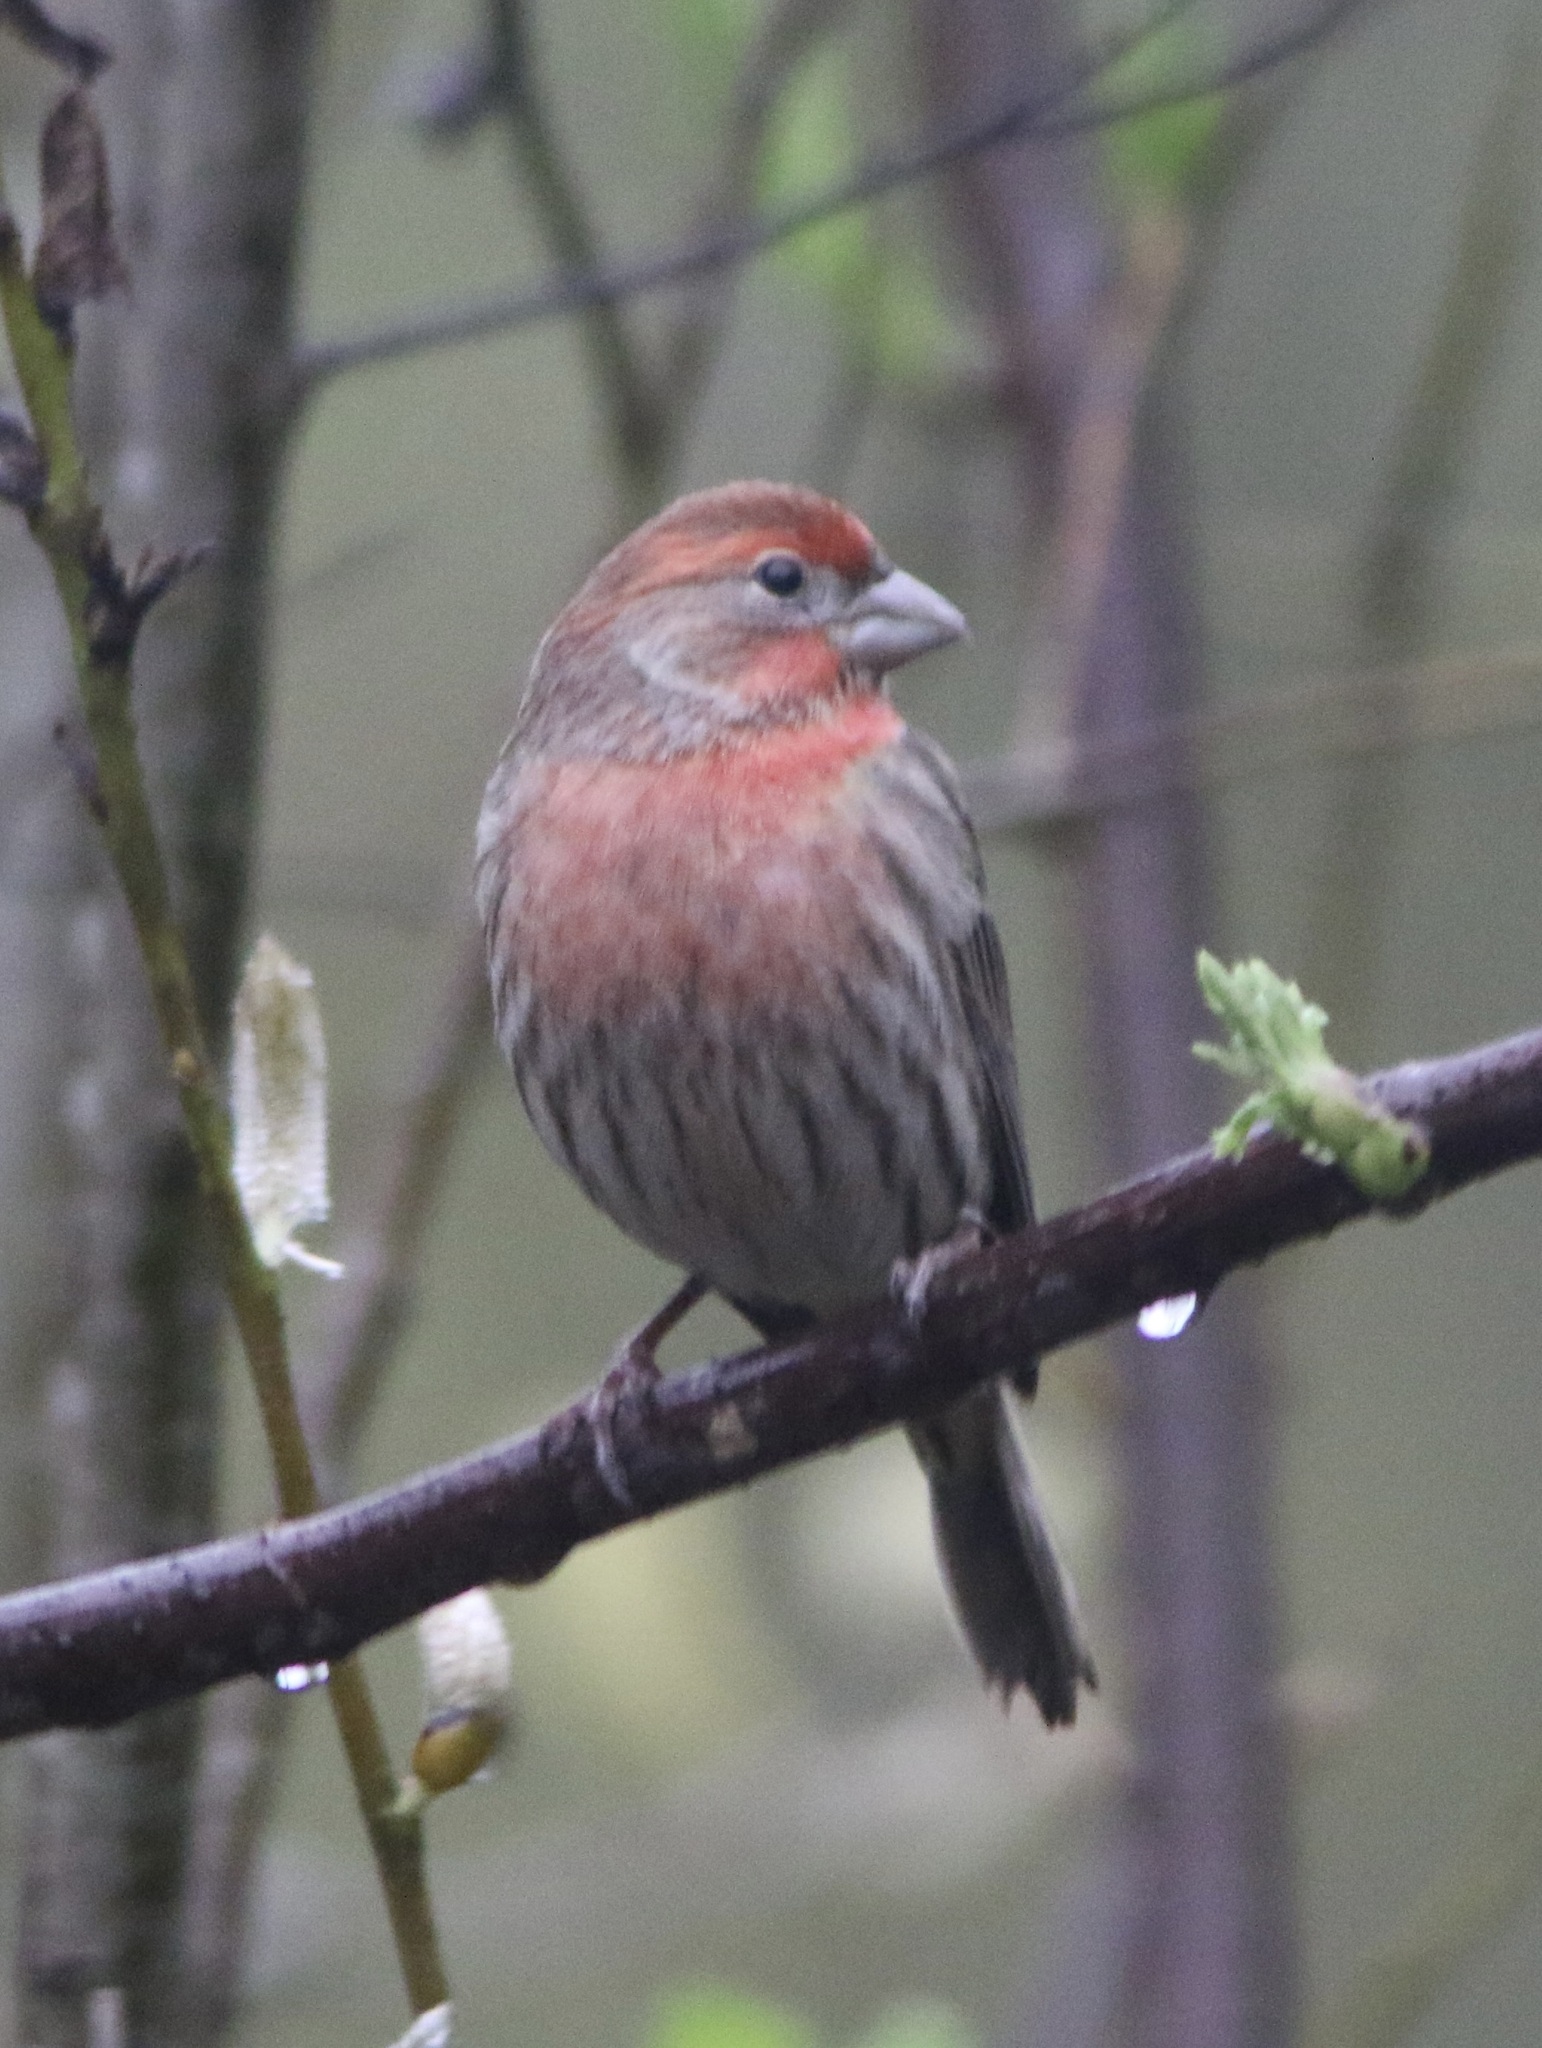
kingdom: Animalia
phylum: Chordata
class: Aves
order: Passeriformes
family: Fringillidae
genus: Haemorhous
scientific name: Haemorhous mexicanus
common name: House finch
